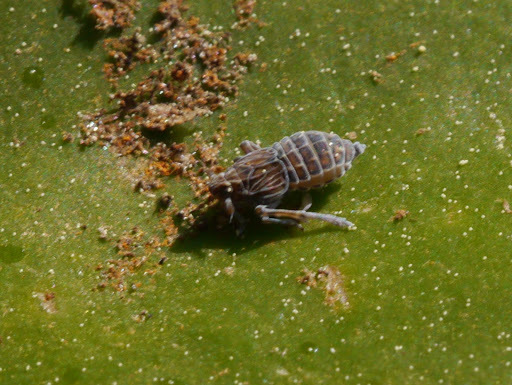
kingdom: Animalia
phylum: Arthropoda
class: Insecta
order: Hemiptera
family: Delphacidae
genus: Megamelus
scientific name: Megamelus davisi
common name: Planthopper
